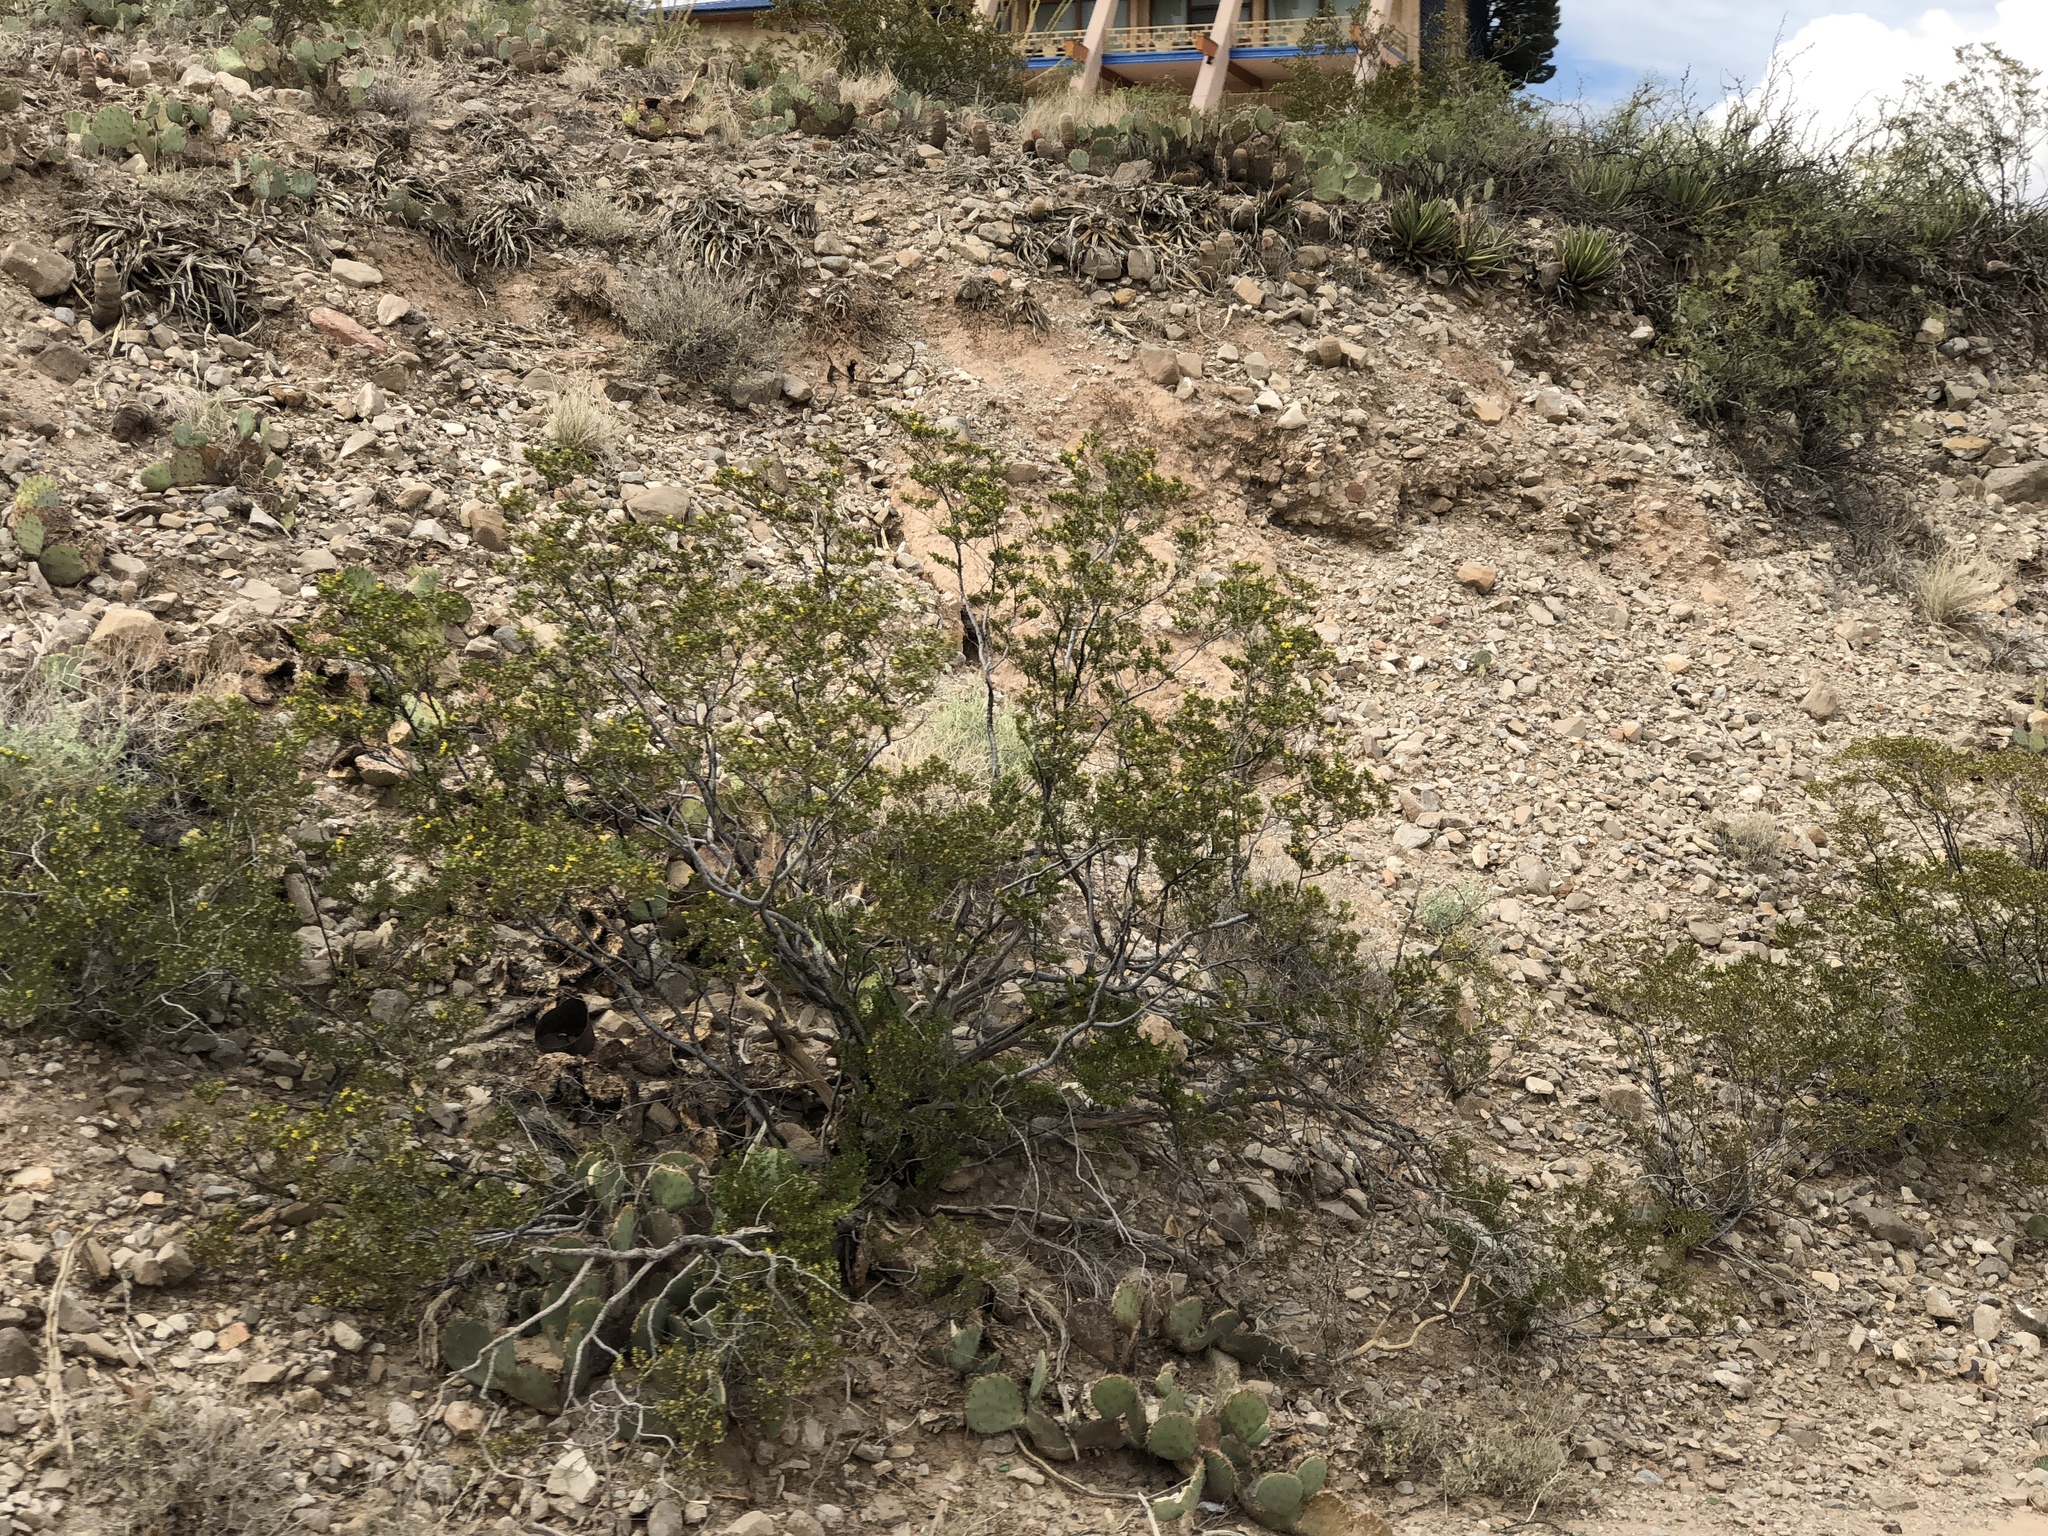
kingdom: Plantae
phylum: Tracheophyta
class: Magnoliopsida
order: Zygophyllales
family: Zygophyllaceae
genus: Larrea
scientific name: Larrea tridentata
